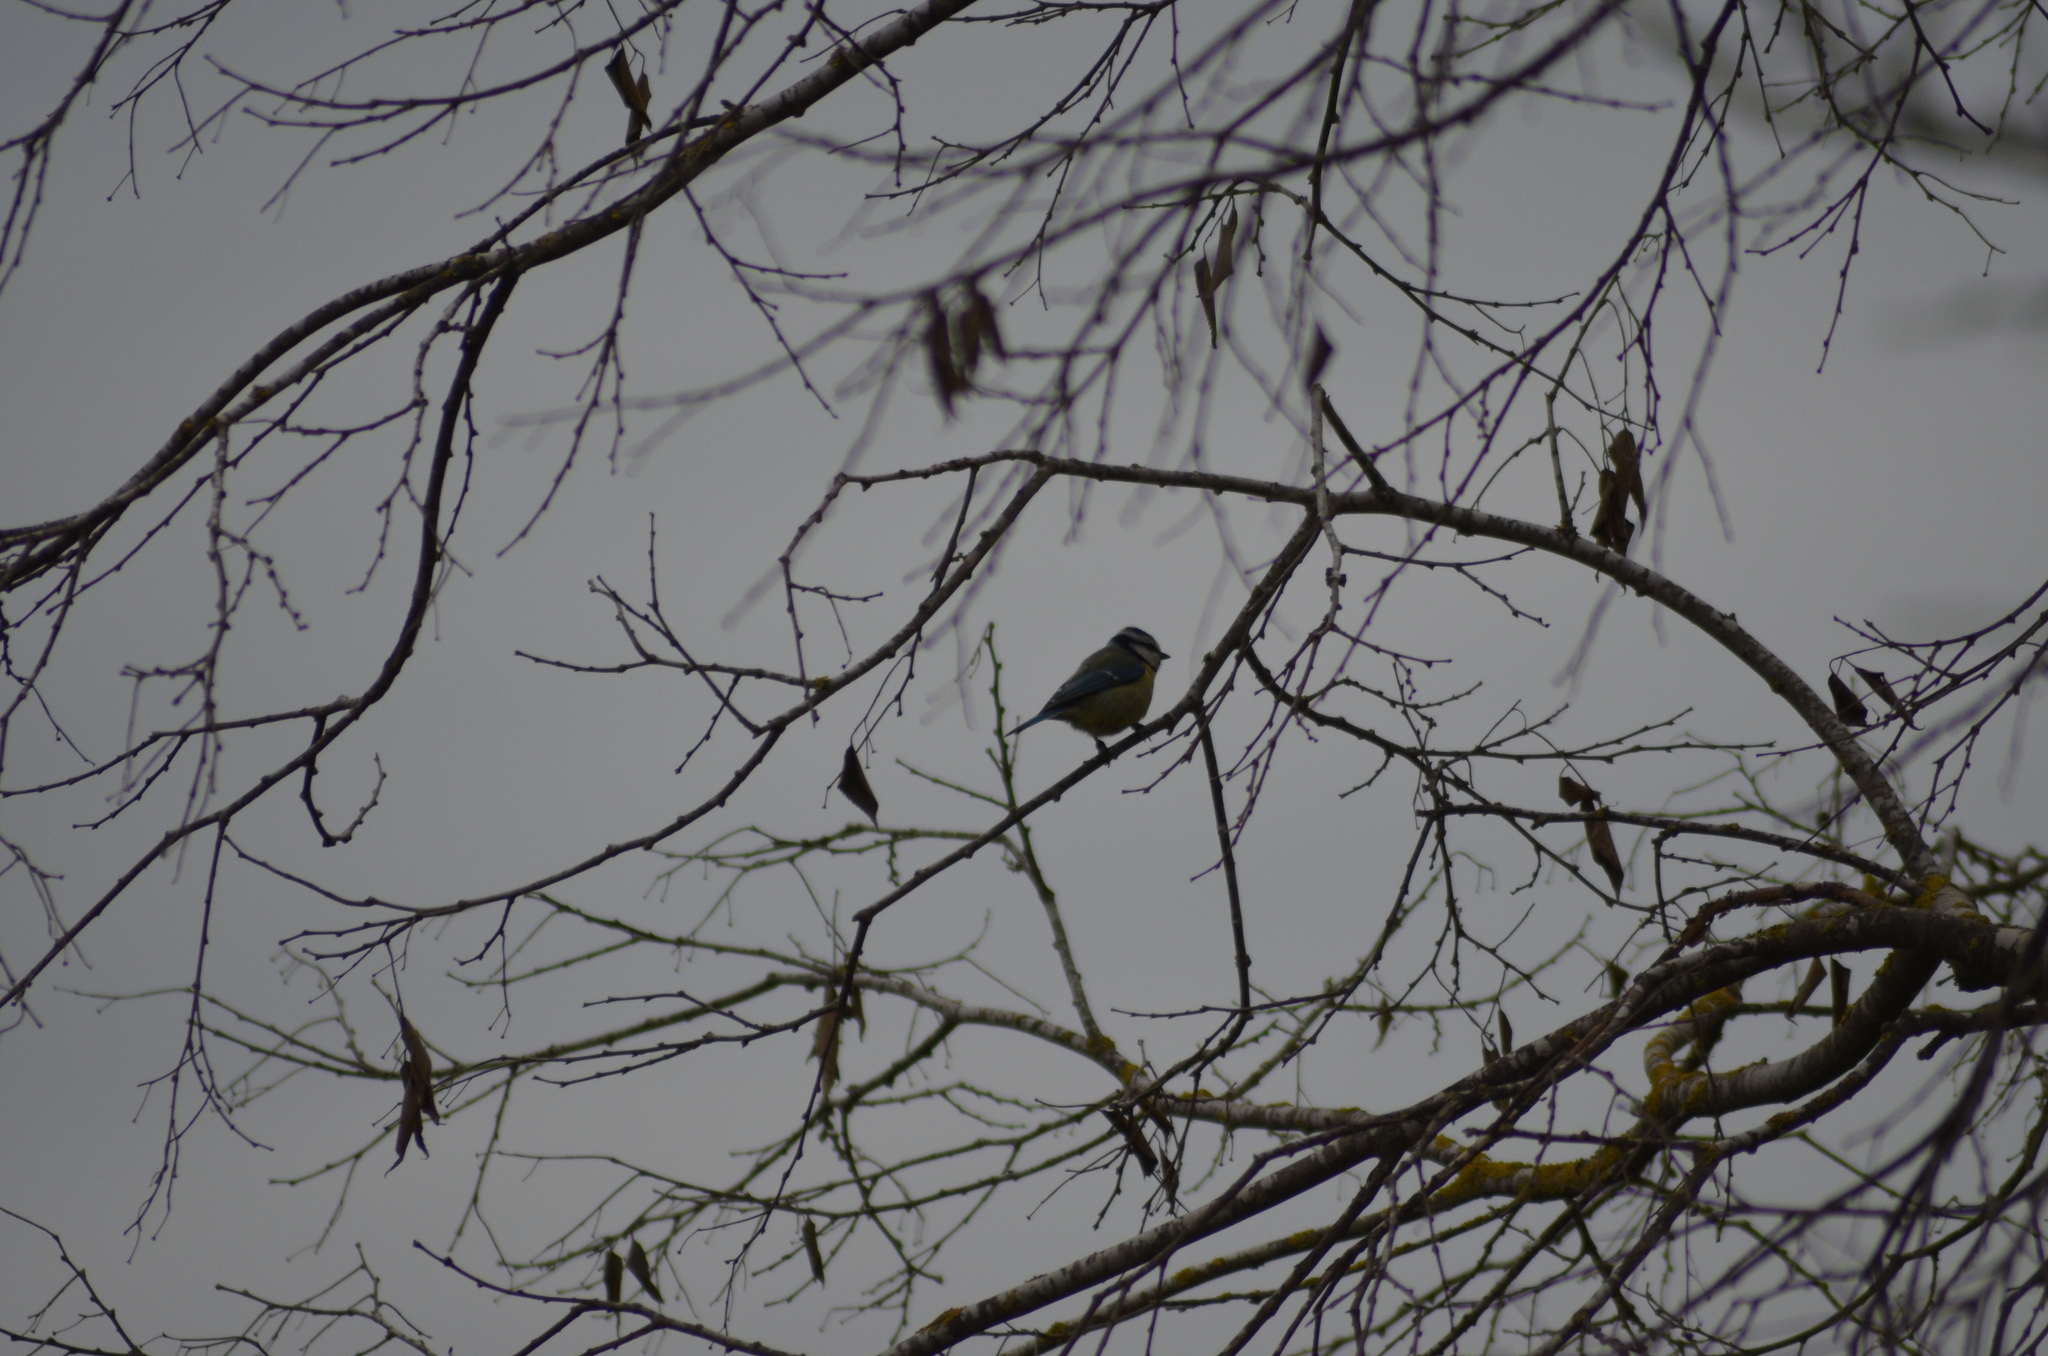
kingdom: Animalia
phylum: Chordata
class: Aves
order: Passeriformes
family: Paridae
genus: Cyanistes
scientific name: Cyanistes caeruleus
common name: Eurasian blue tit
